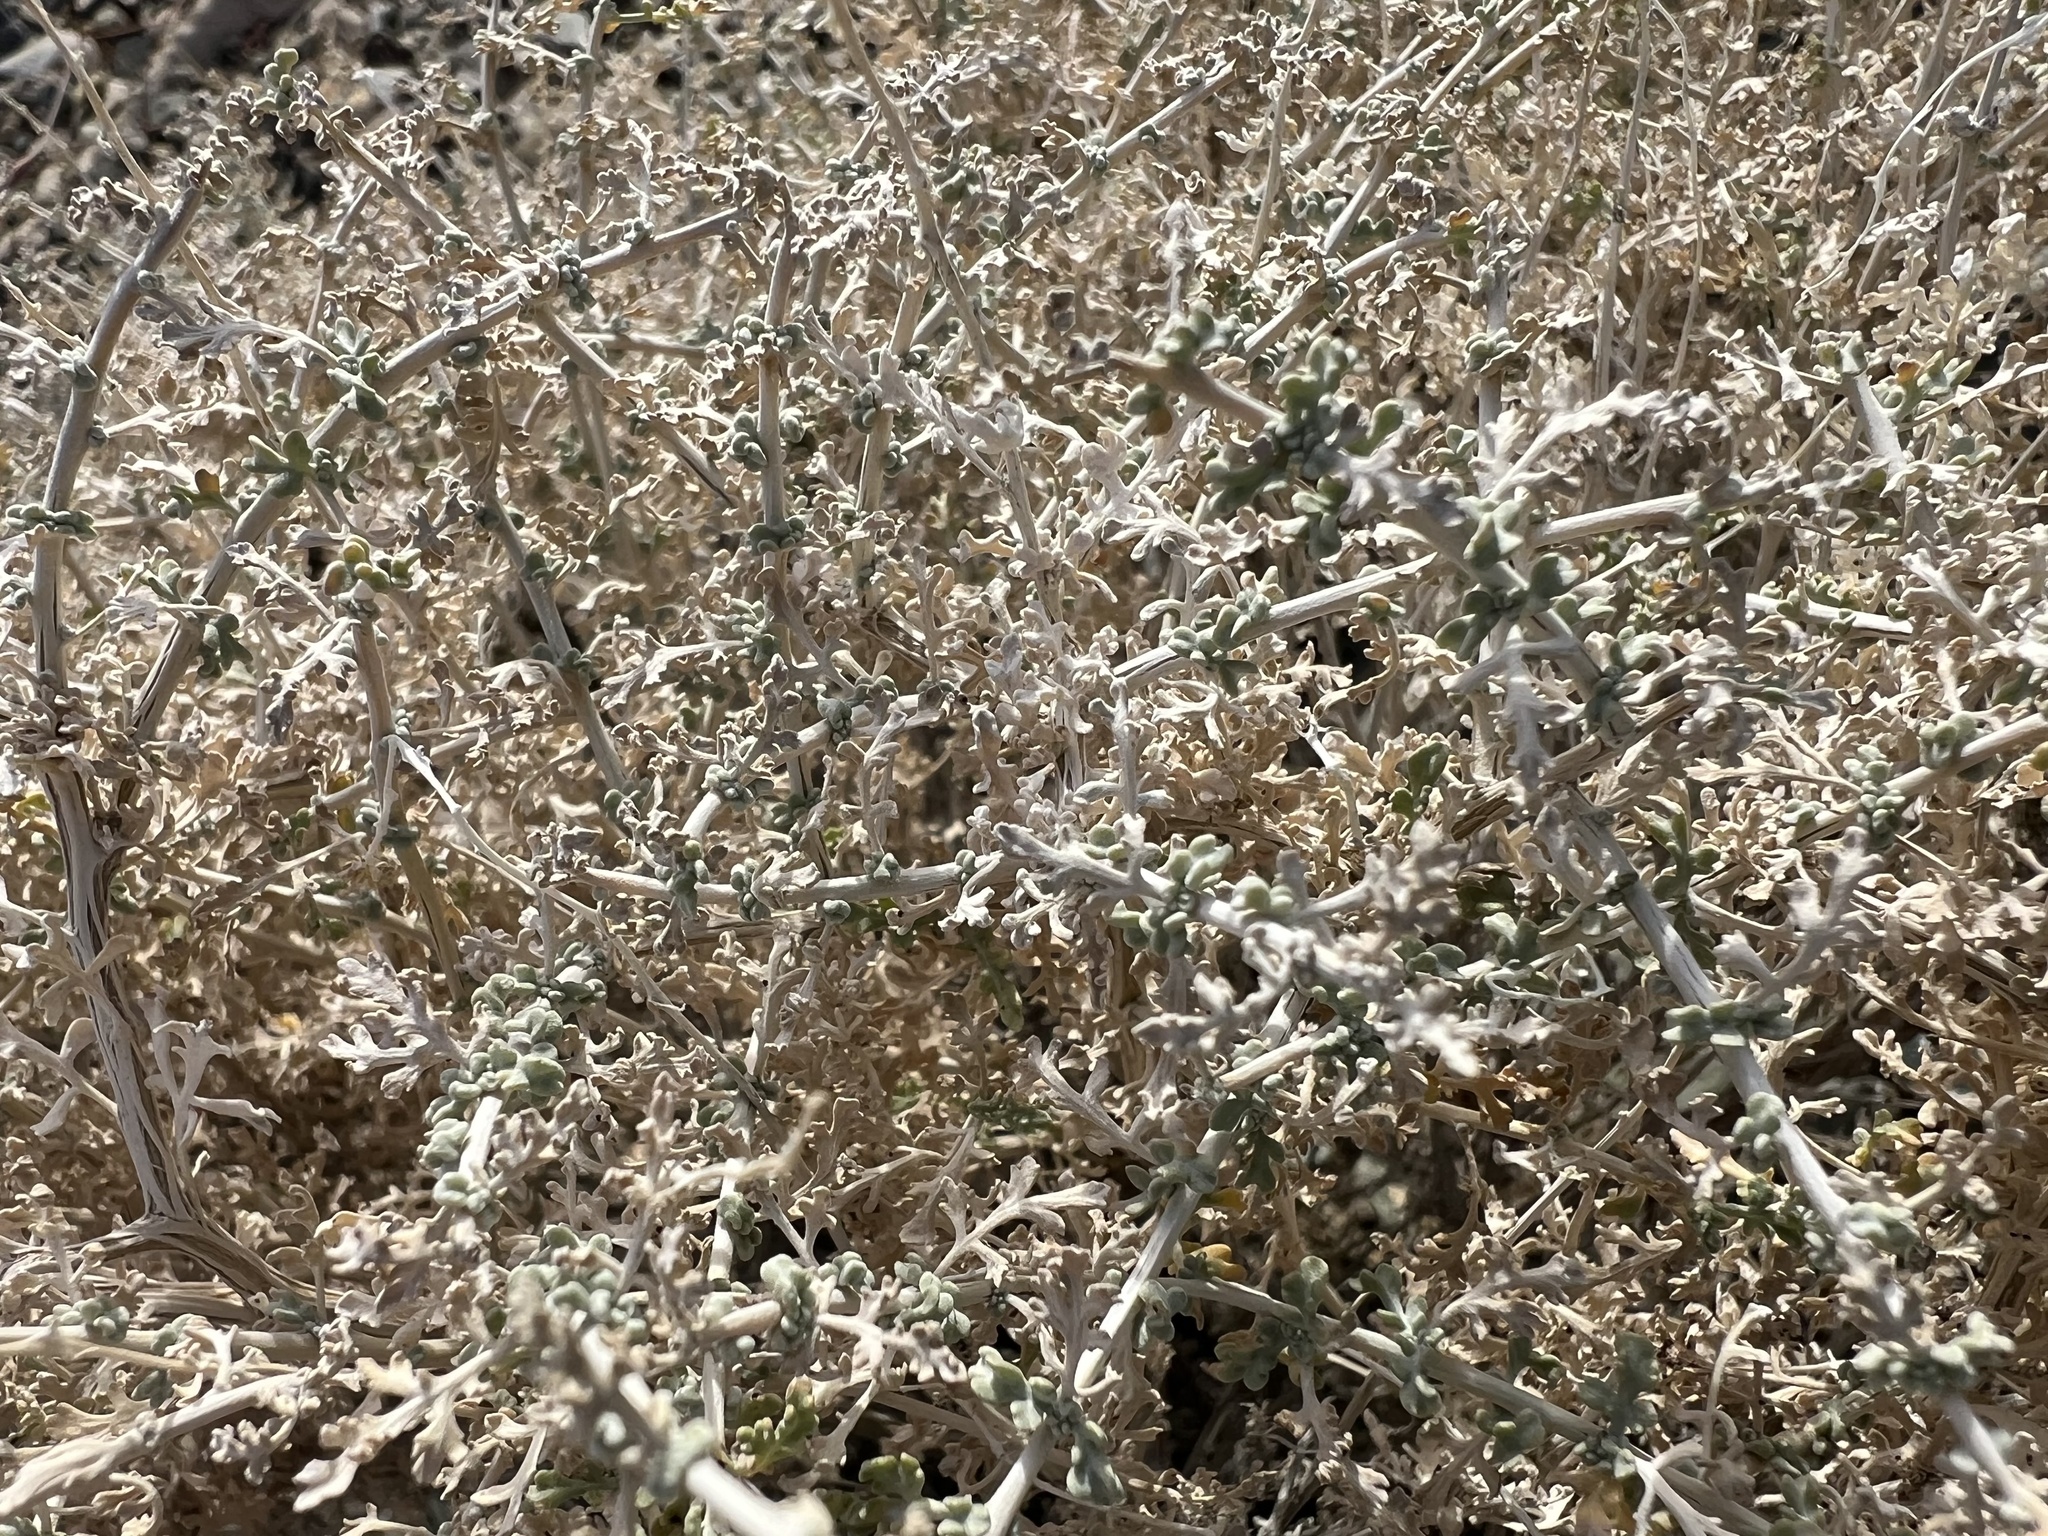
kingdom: Plantae
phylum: Tracheophyta
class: Magnoliopsida
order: Asterales
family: Asteraceae
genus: Ambrosia
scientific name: Ambrosia dumosa
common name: Bur-sage
